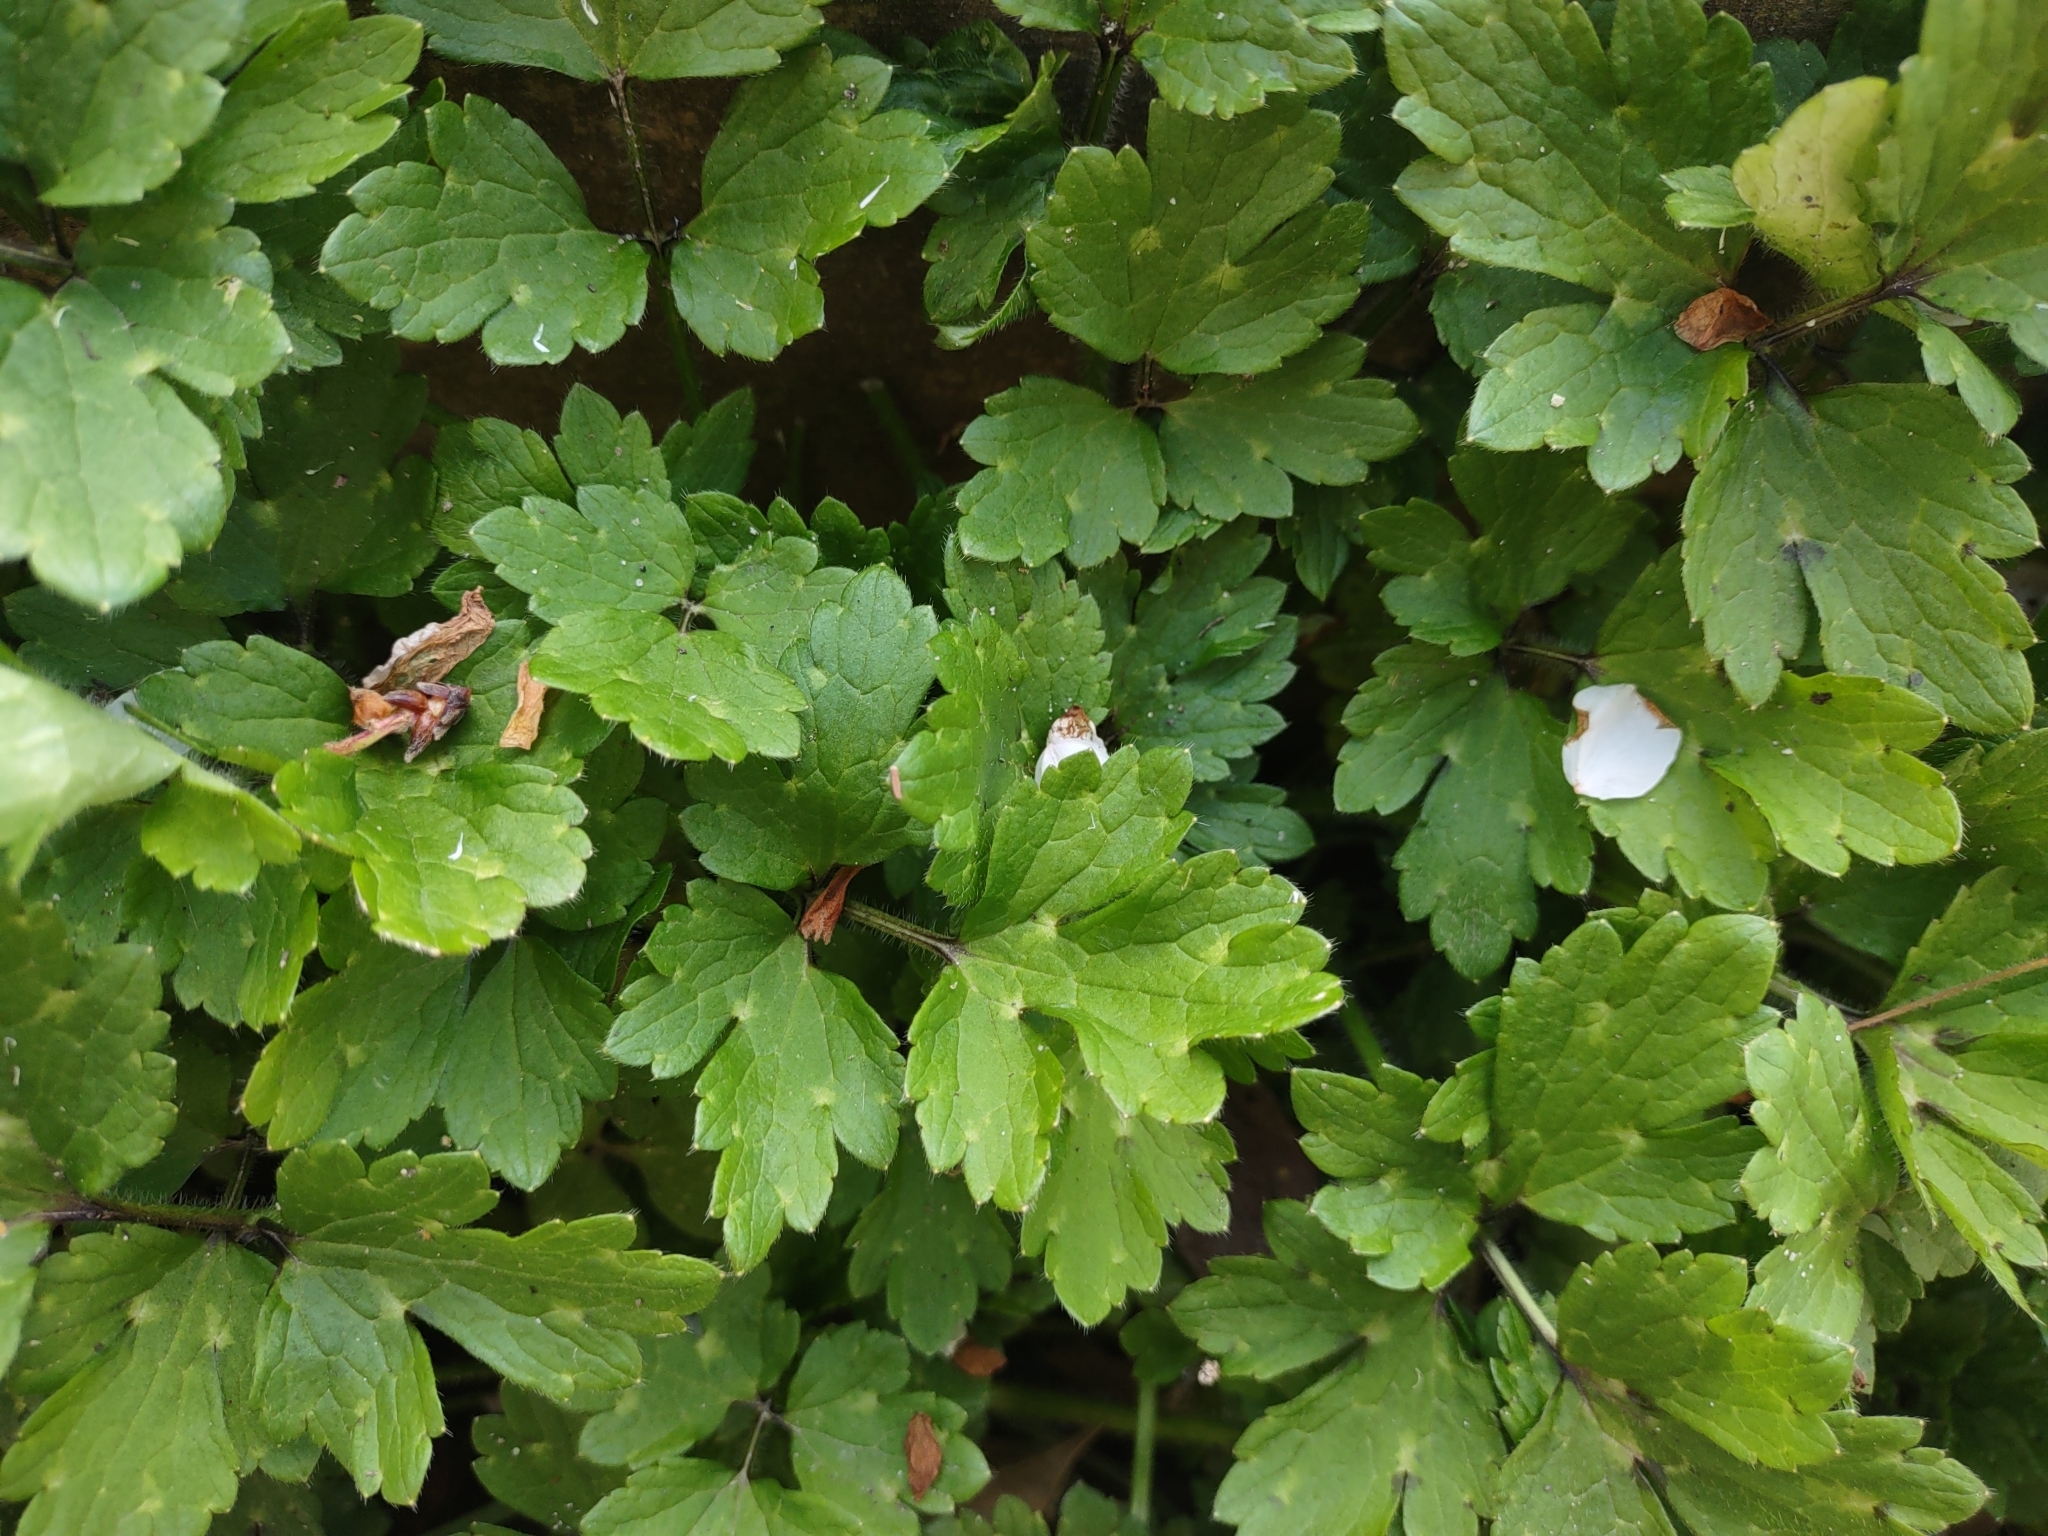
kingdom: Plantae
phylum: Tracheophyta
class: Magnoliopsida
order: Ranunculales
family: Ranunculaceae
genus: Ranunculus
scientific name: Ranunculus repens
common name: Creeping buttercup
